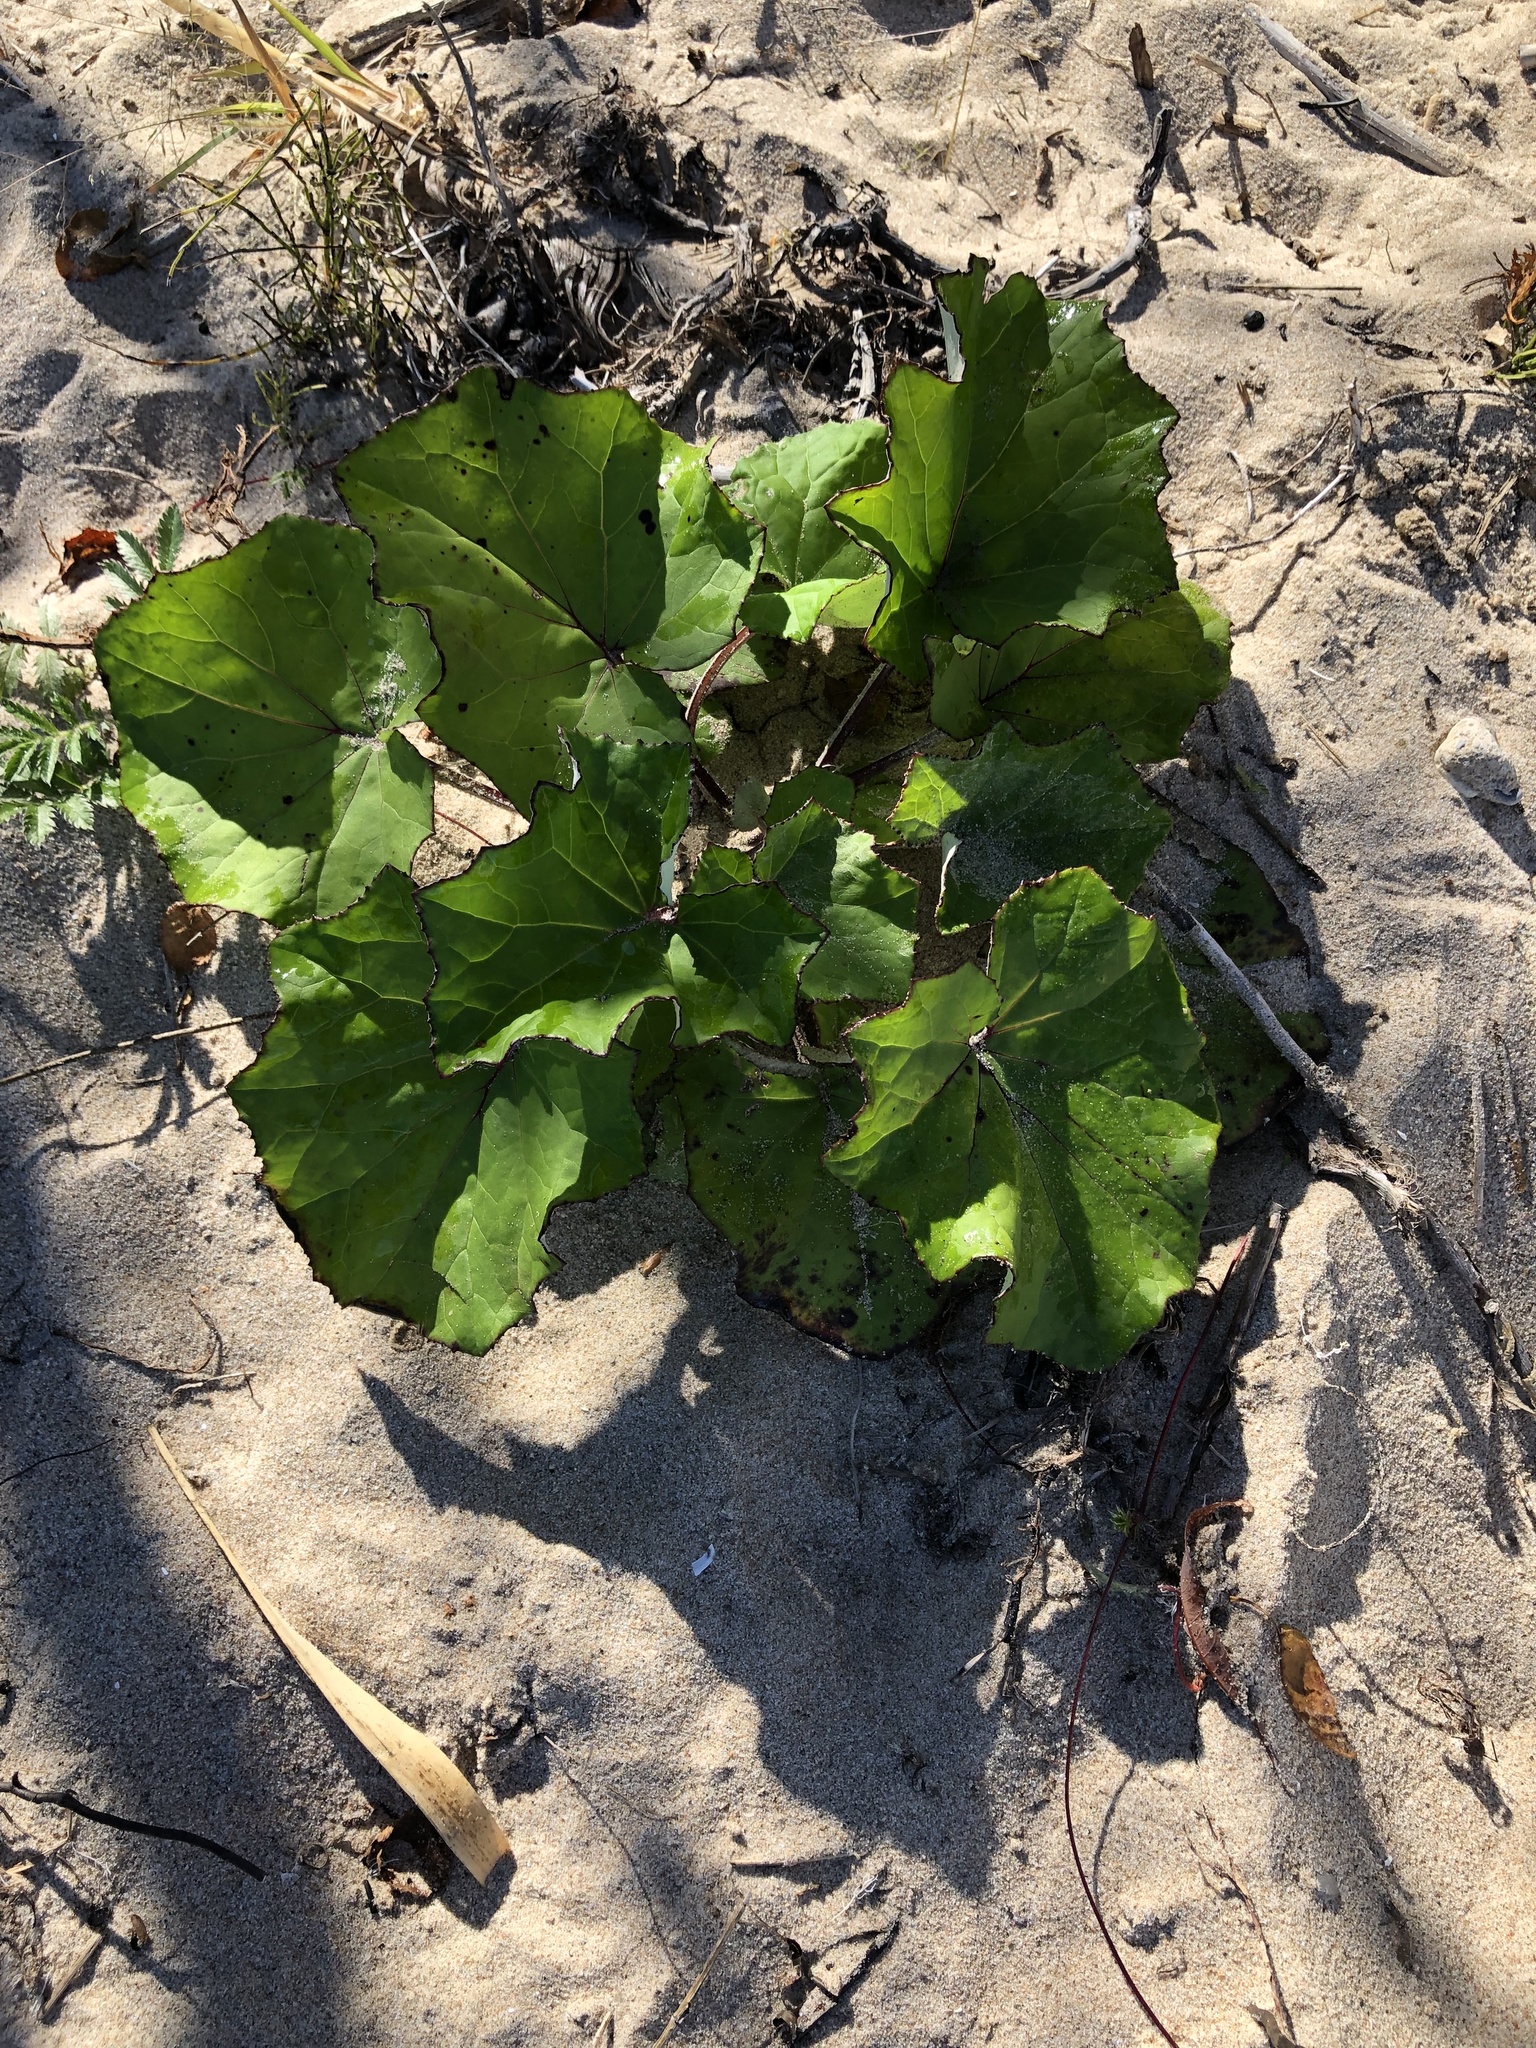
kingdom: Plantae
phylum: Tracheophyta
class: Magnoliopsida
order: Asterales
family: Asteraceae
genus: Tussilago
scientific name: Tussilago farfara
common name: Coltsfoot
